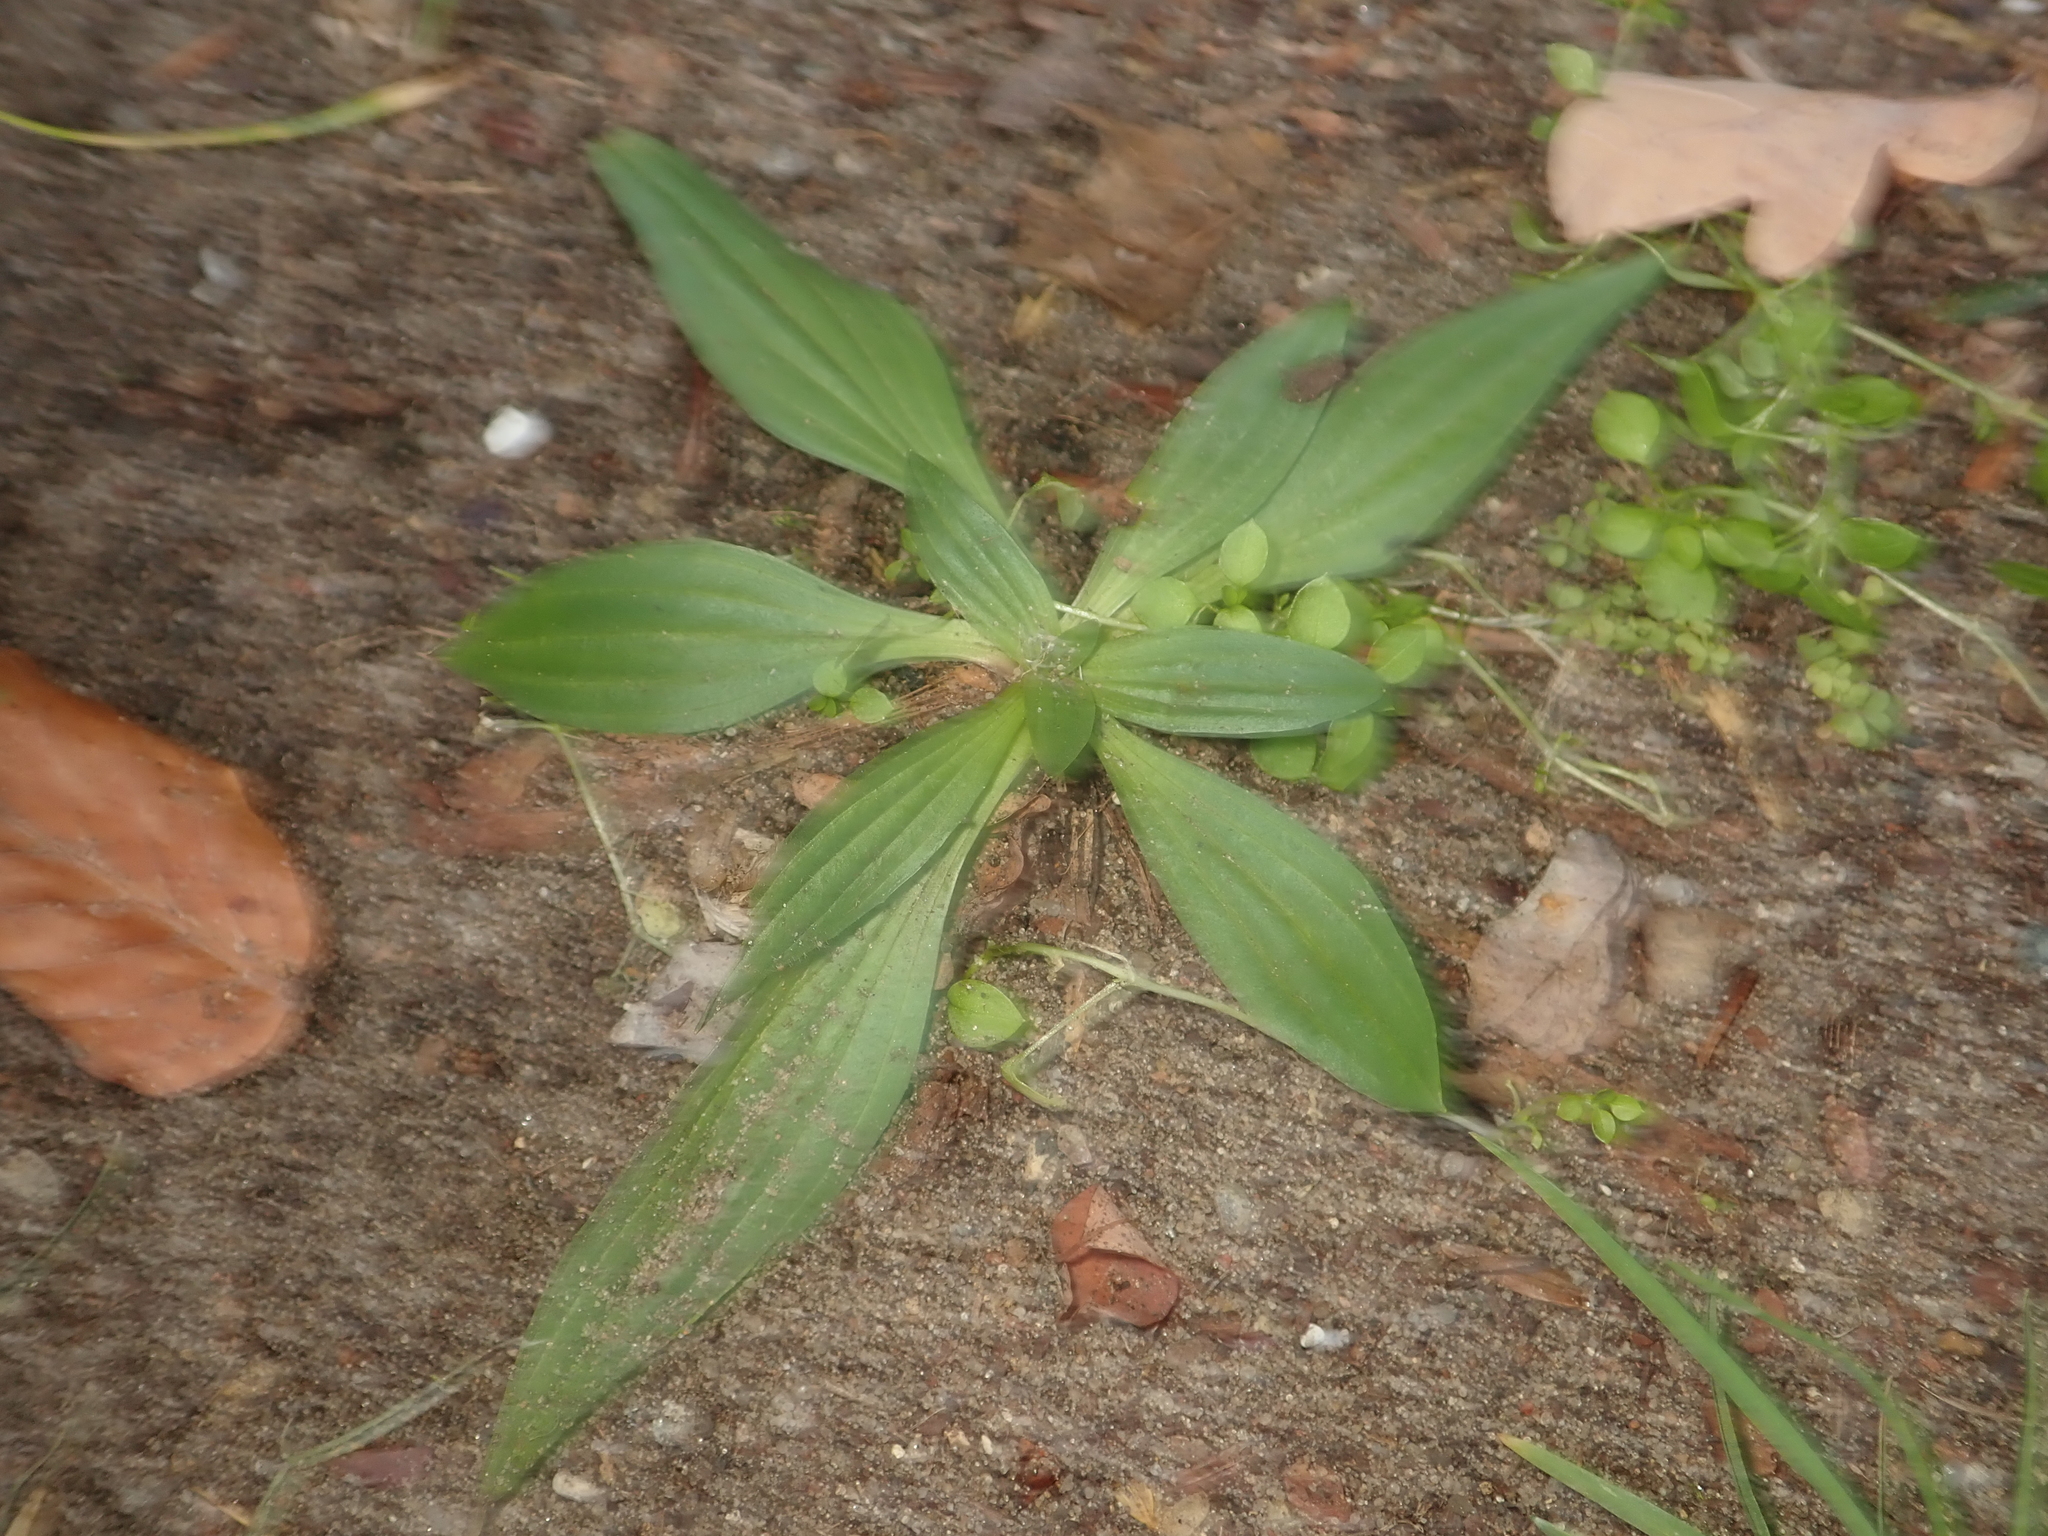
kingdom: Plantae
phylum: Tracheophyta
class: Magnoliopsida
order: Lamiales
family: Plantaginaceae
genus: Plantago
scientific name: Plantago lanceolata
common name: Ribwort plantain
